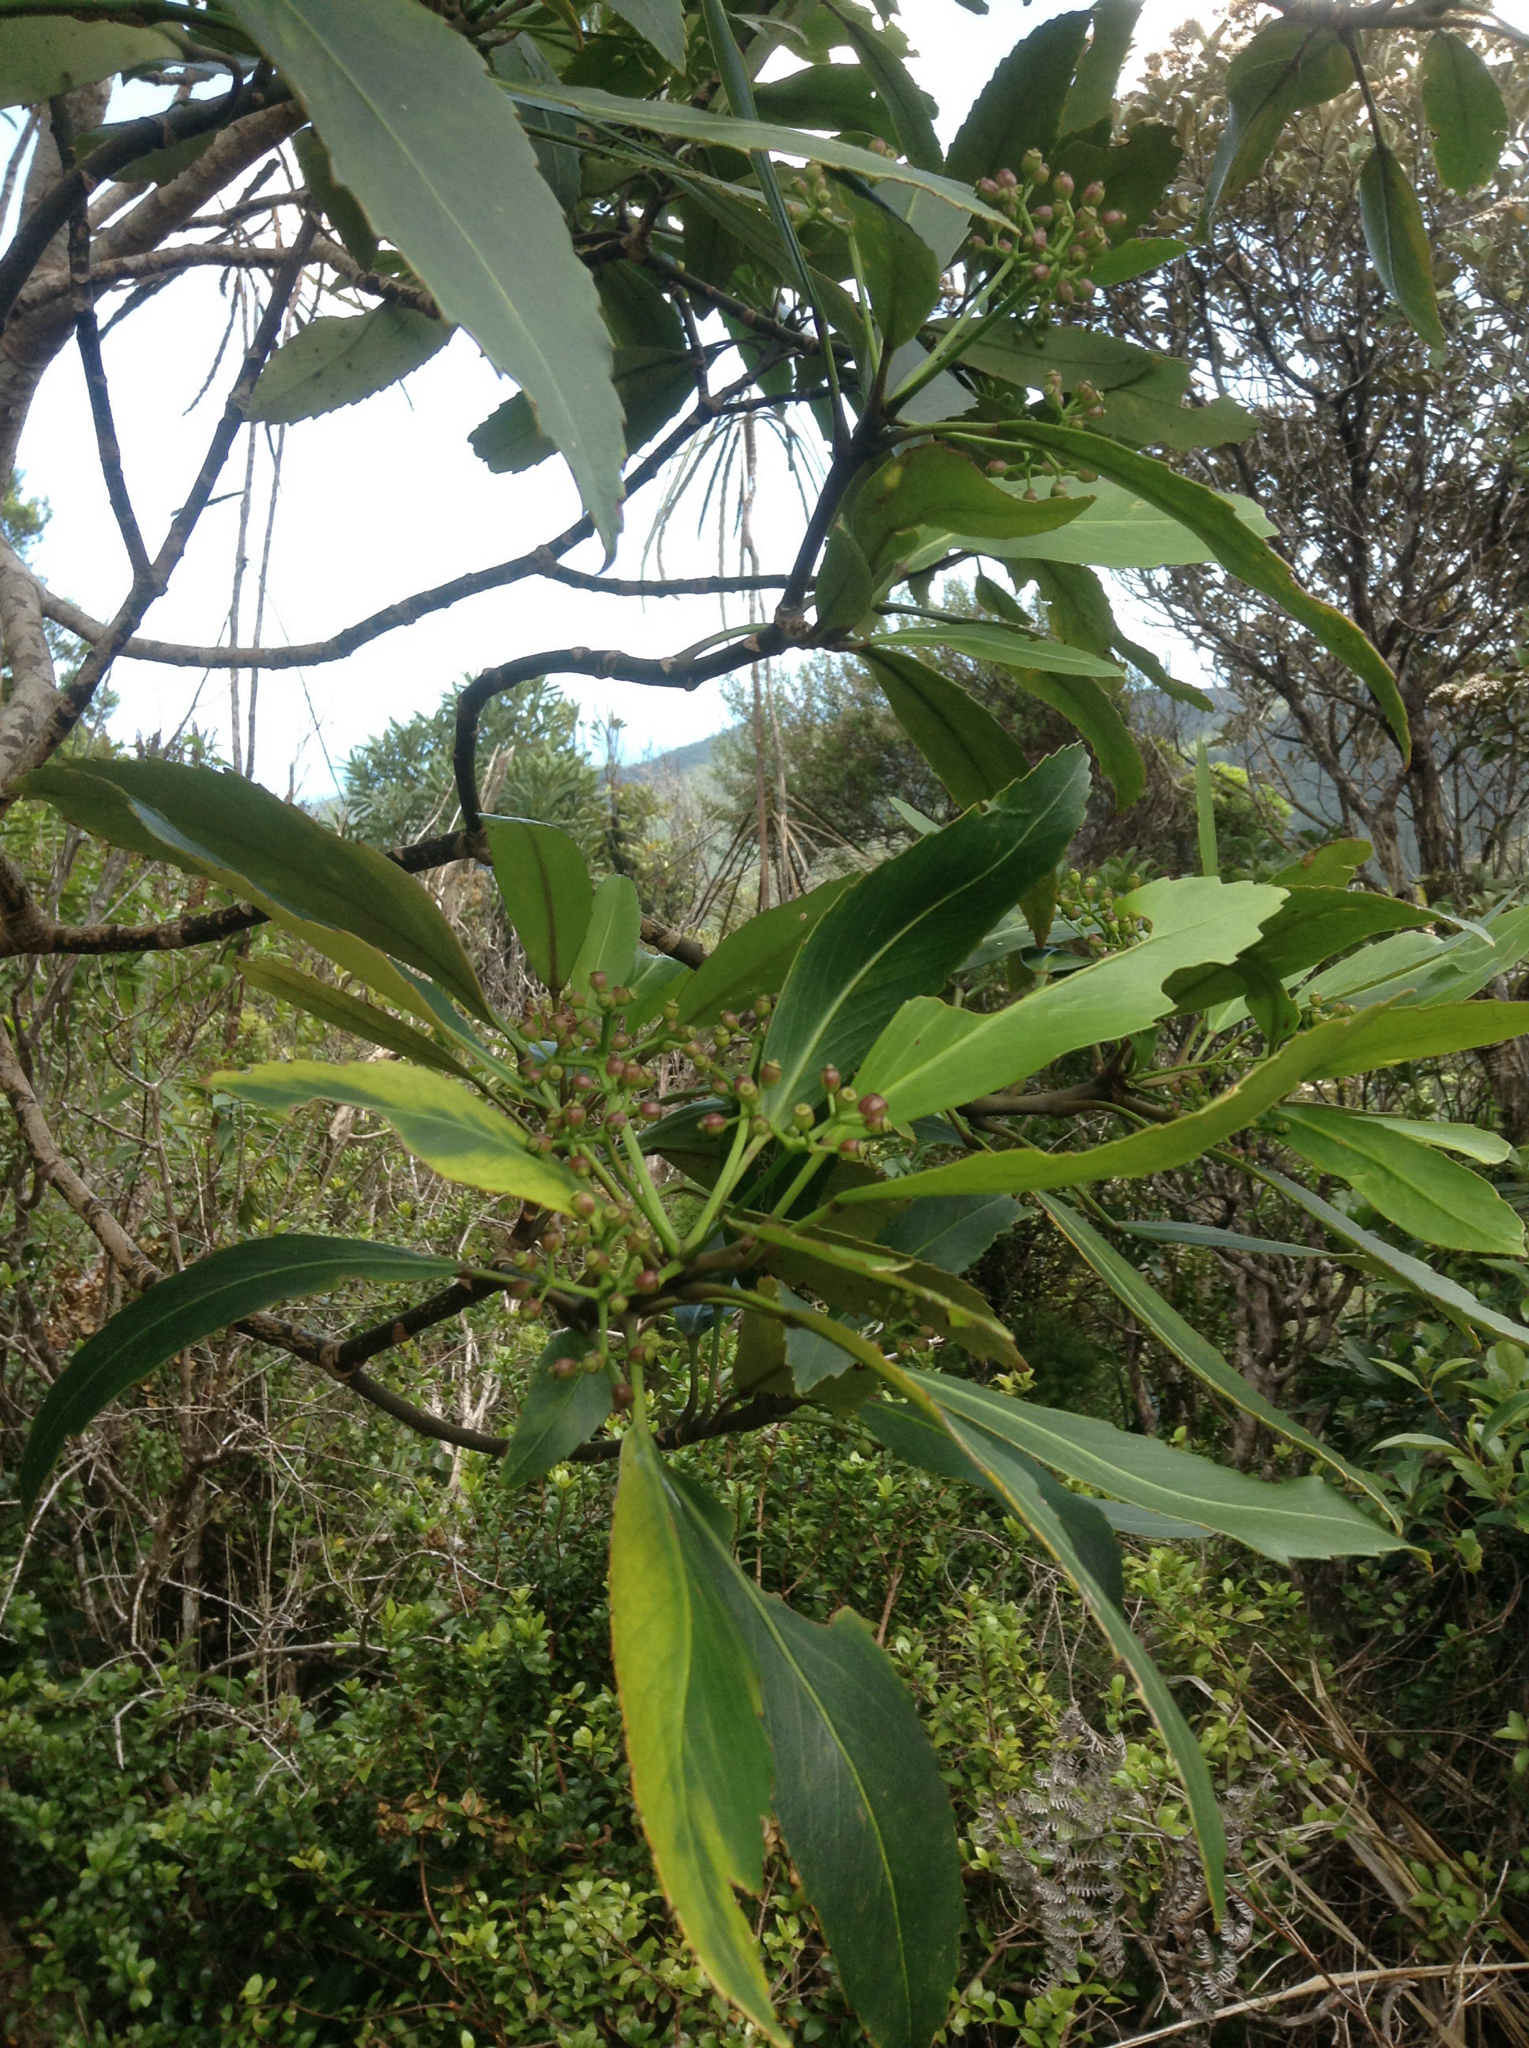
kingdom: Plantae
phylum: Tracheophyta
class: Magnoliopsida
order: Apiales
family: Araliaceae
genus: Pseudopanax
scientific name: Pseudopanax crassifolius
